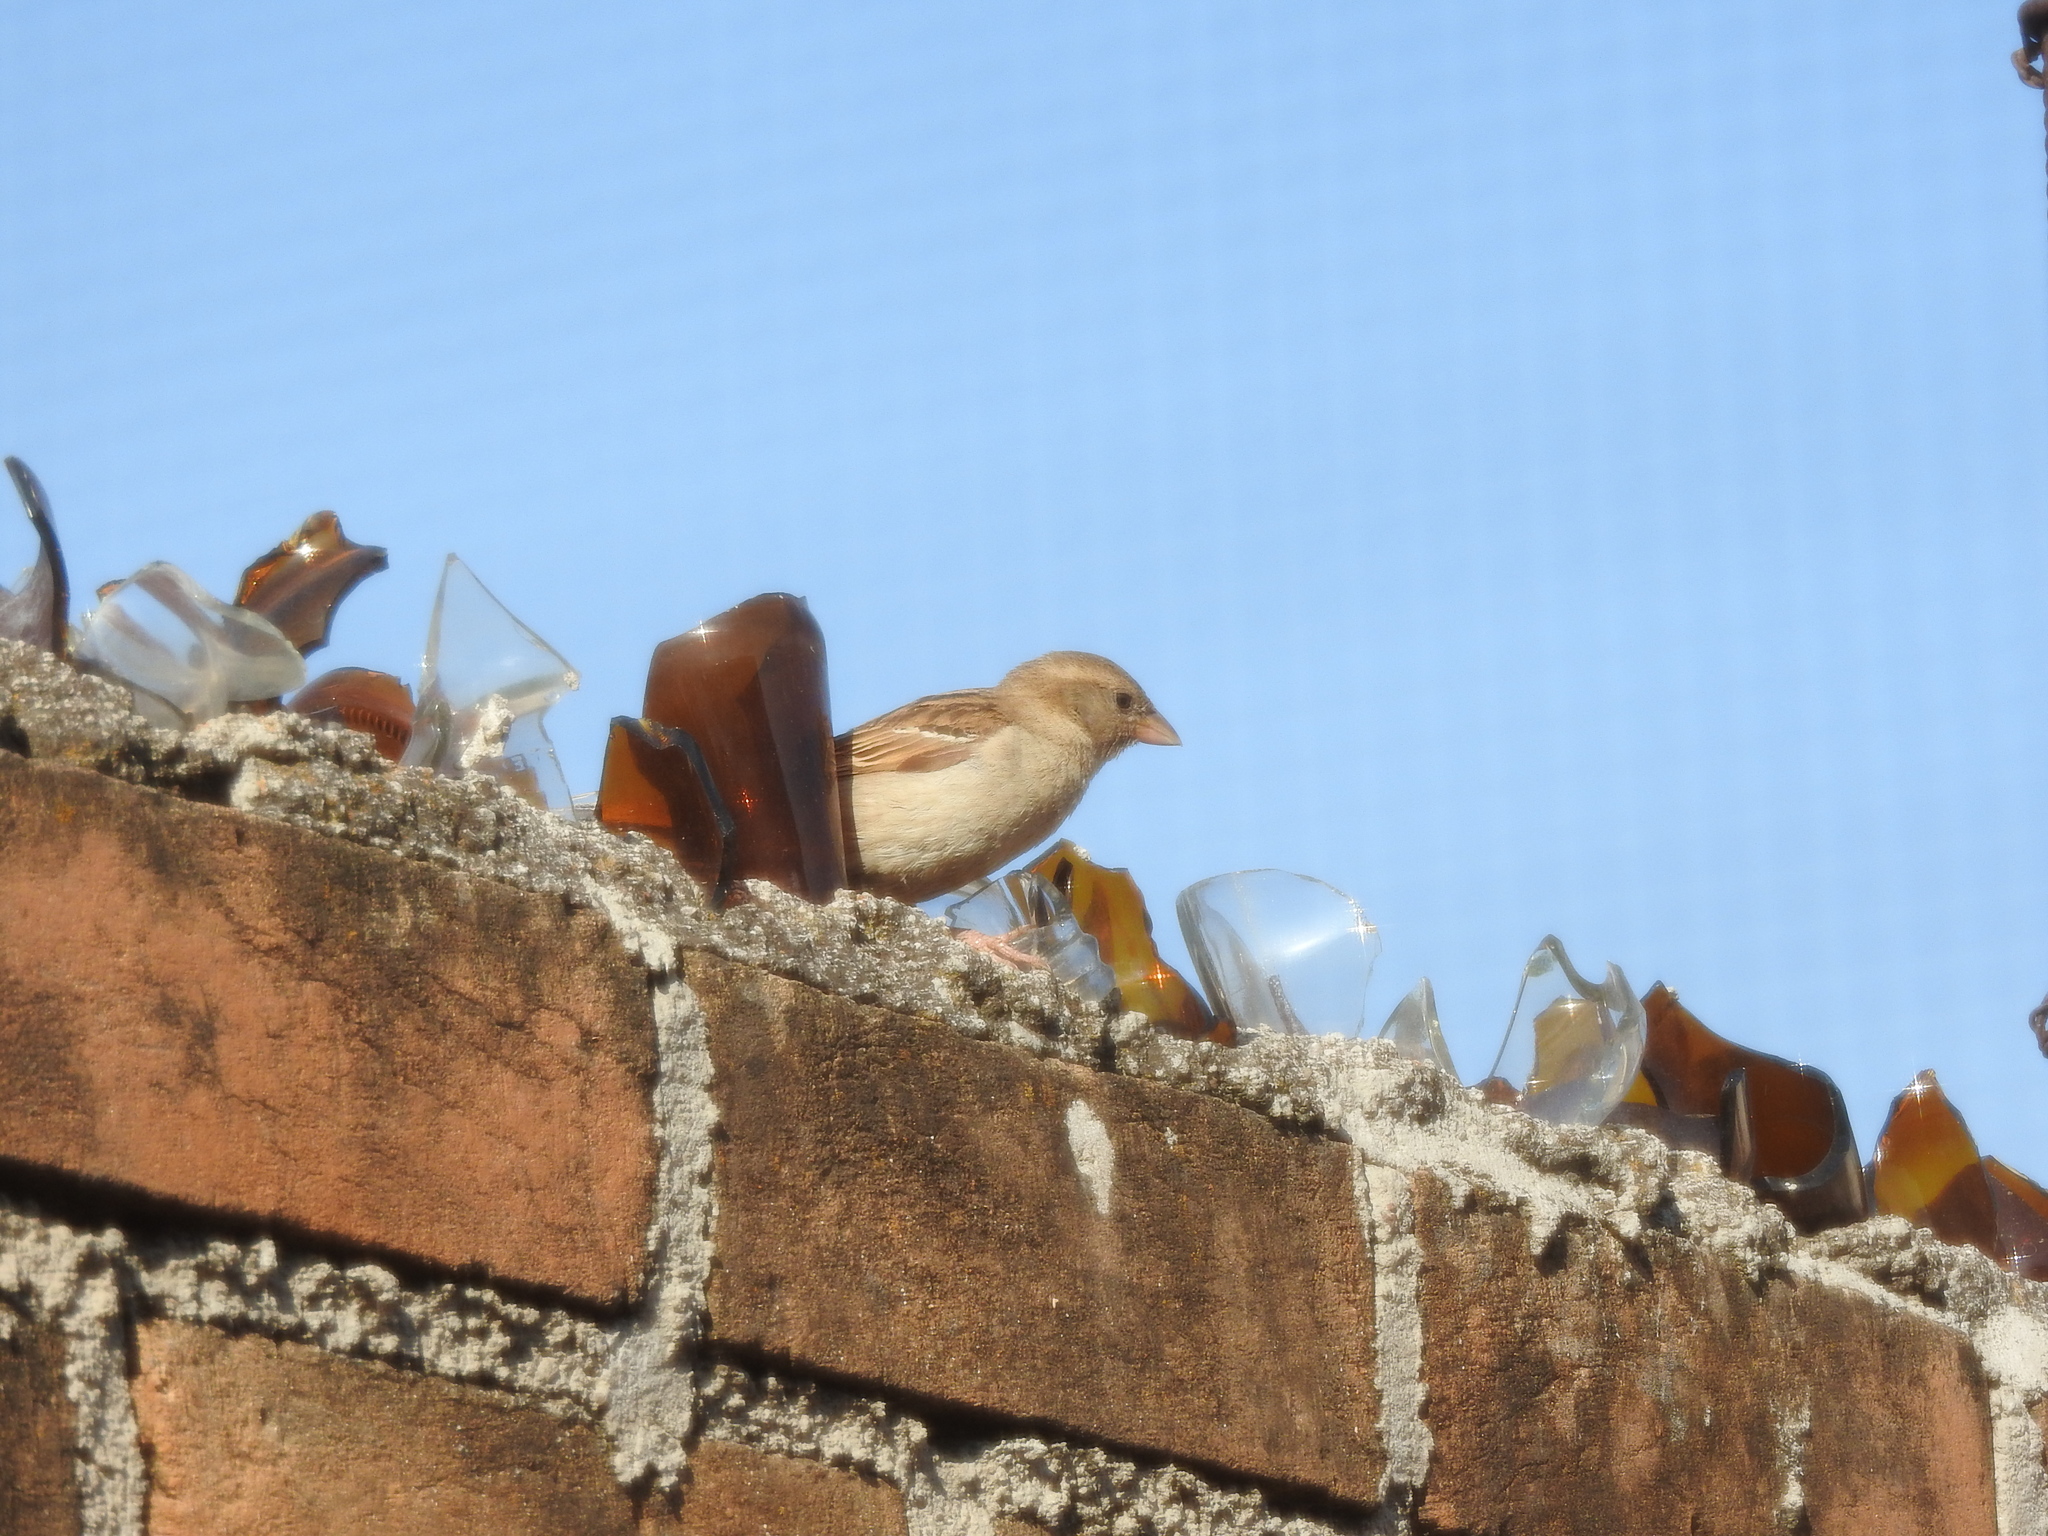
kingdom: Animalia
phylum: Chordata
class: Aves
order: Passeriformes
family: Passeridae
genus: Passer
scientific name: Passer domesticus
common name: House sparrow
